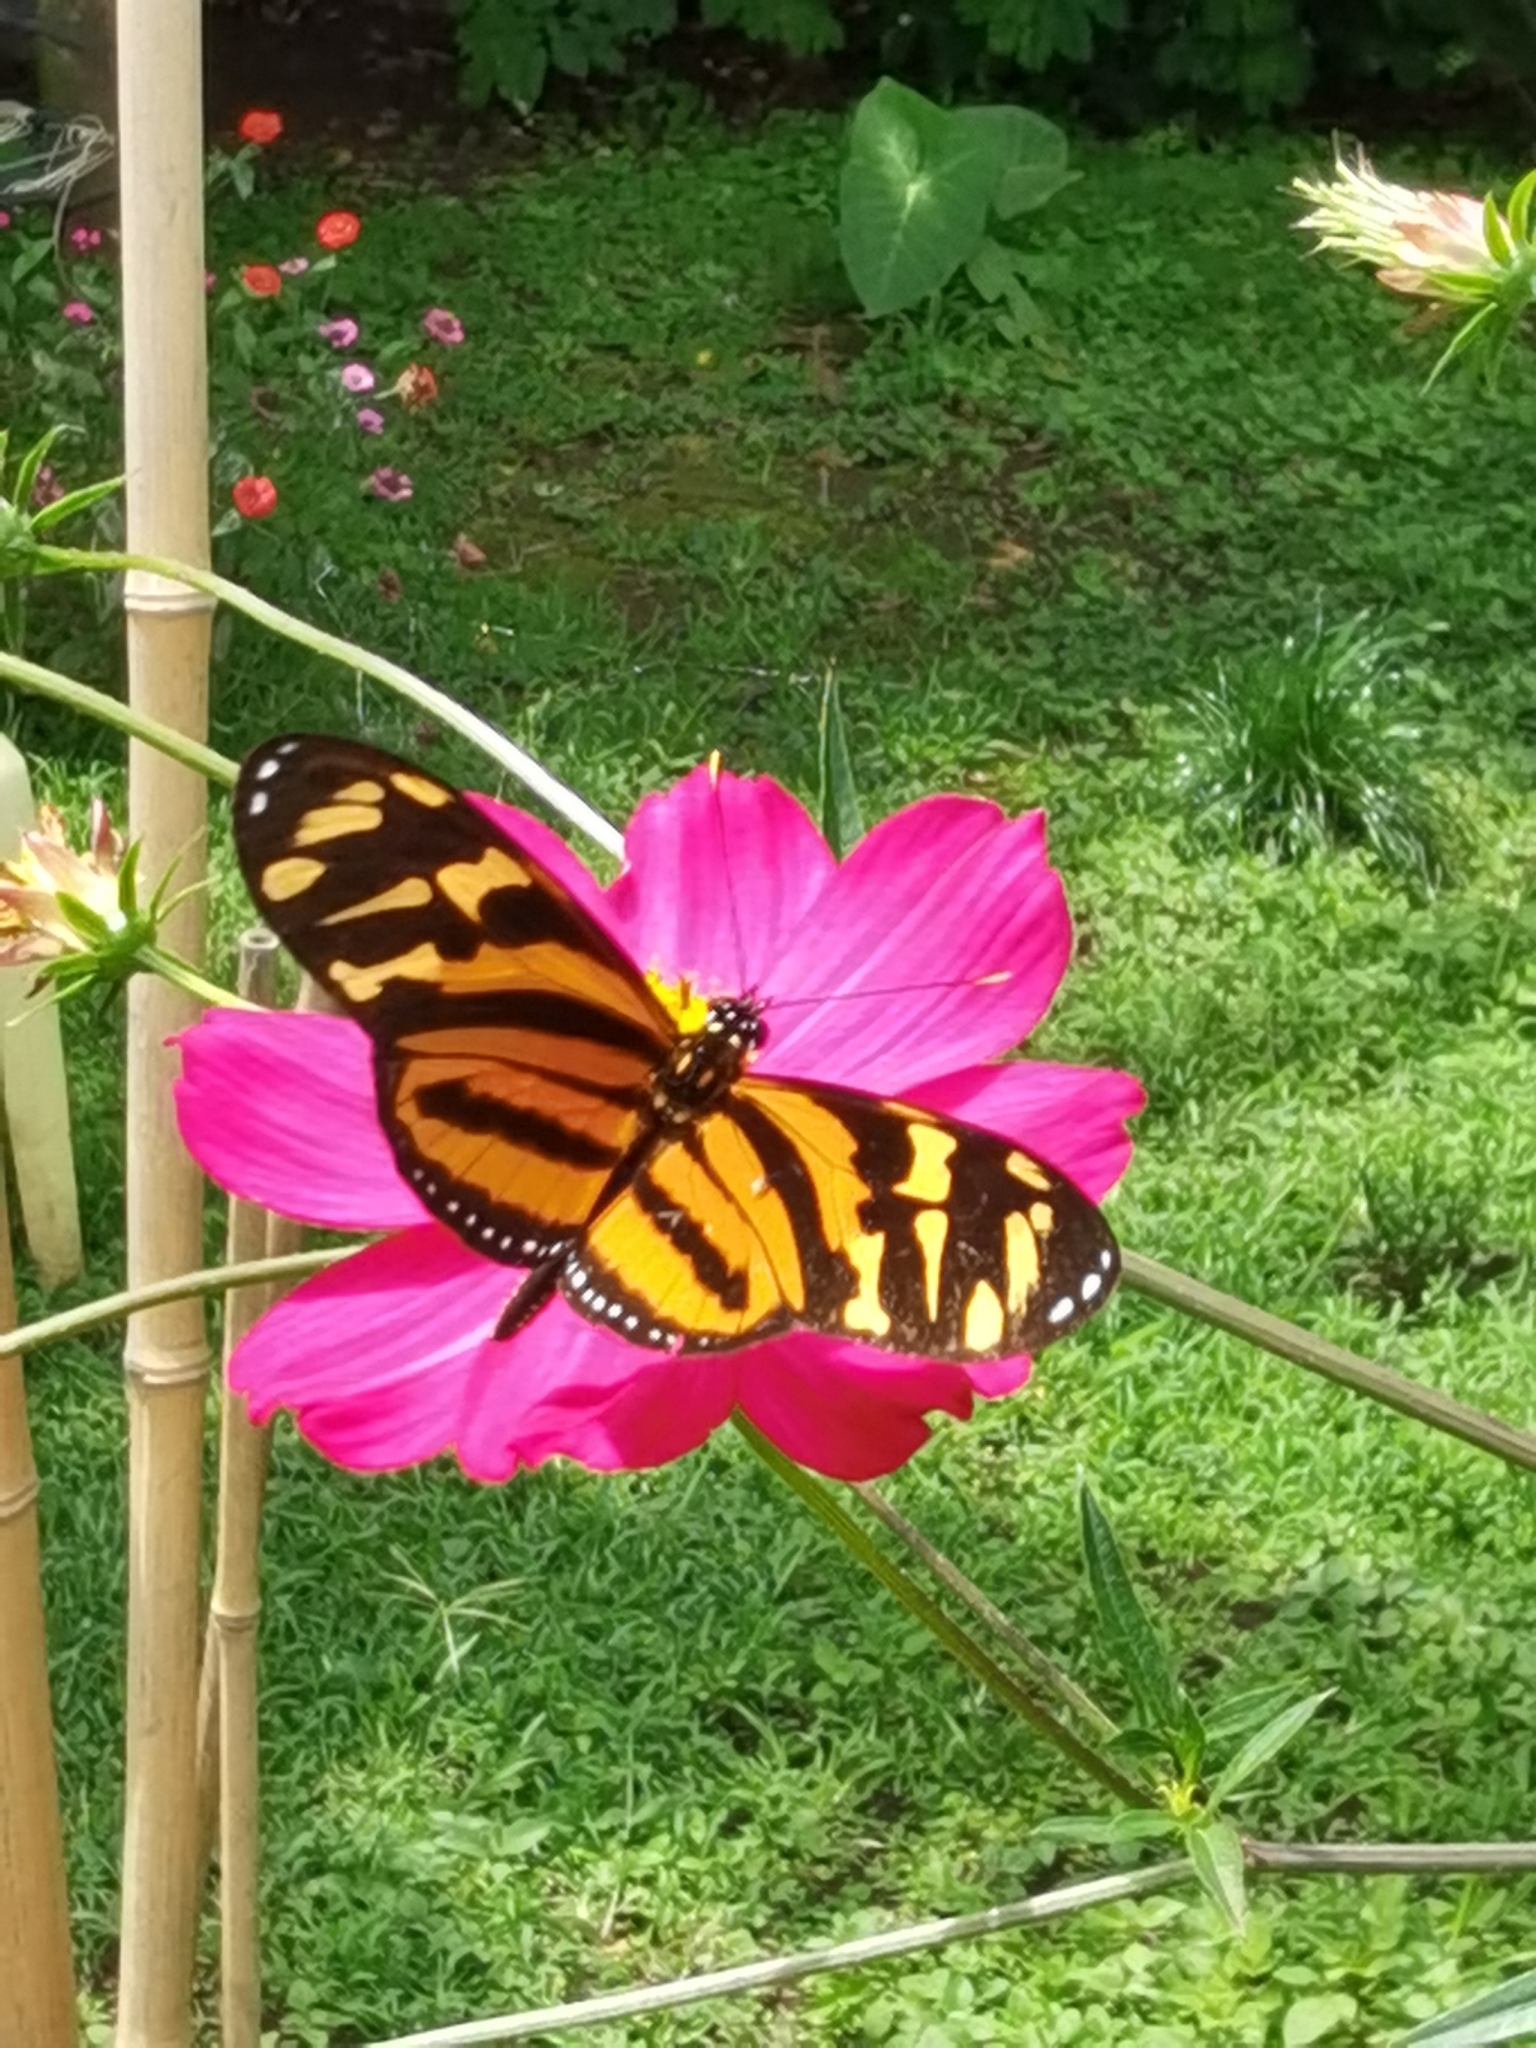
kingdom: Animalia
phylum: Arthropoda
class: Insecta
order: Lepidoptera
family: Nymphalidae
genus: Lycorea
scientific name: Lycorea eva
